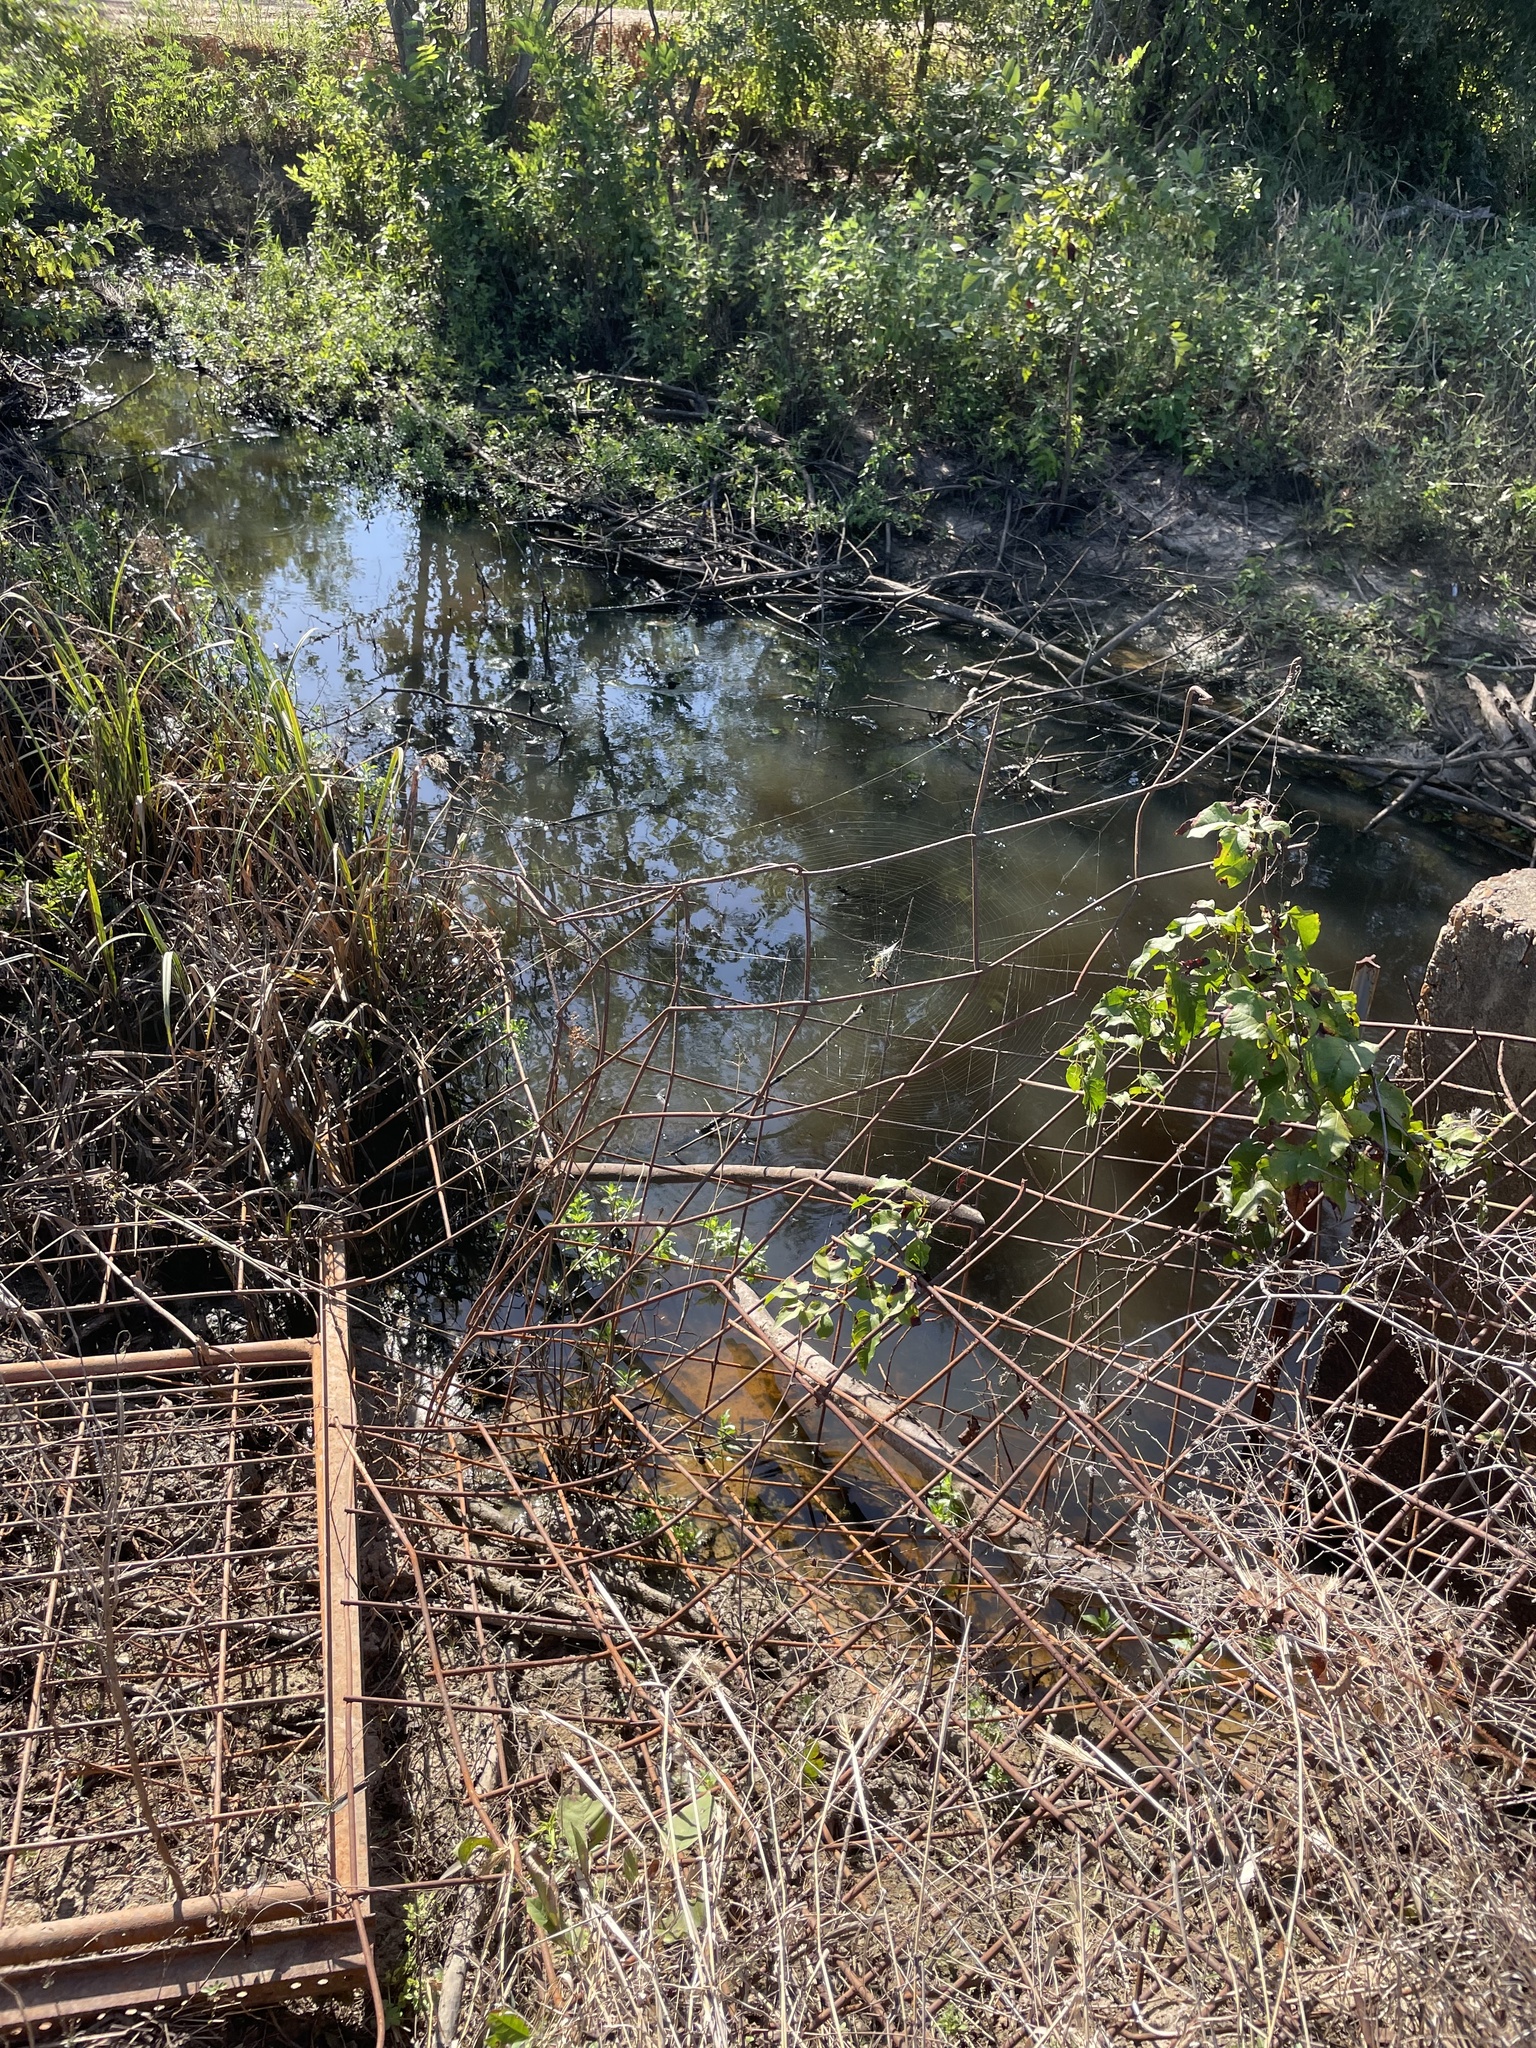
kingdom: Animalia
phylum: Arthropoda
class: Arachnida
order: Araneae
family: Araneidae
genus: Argiope
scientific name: Argiope aurantia
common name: Orb weavers
